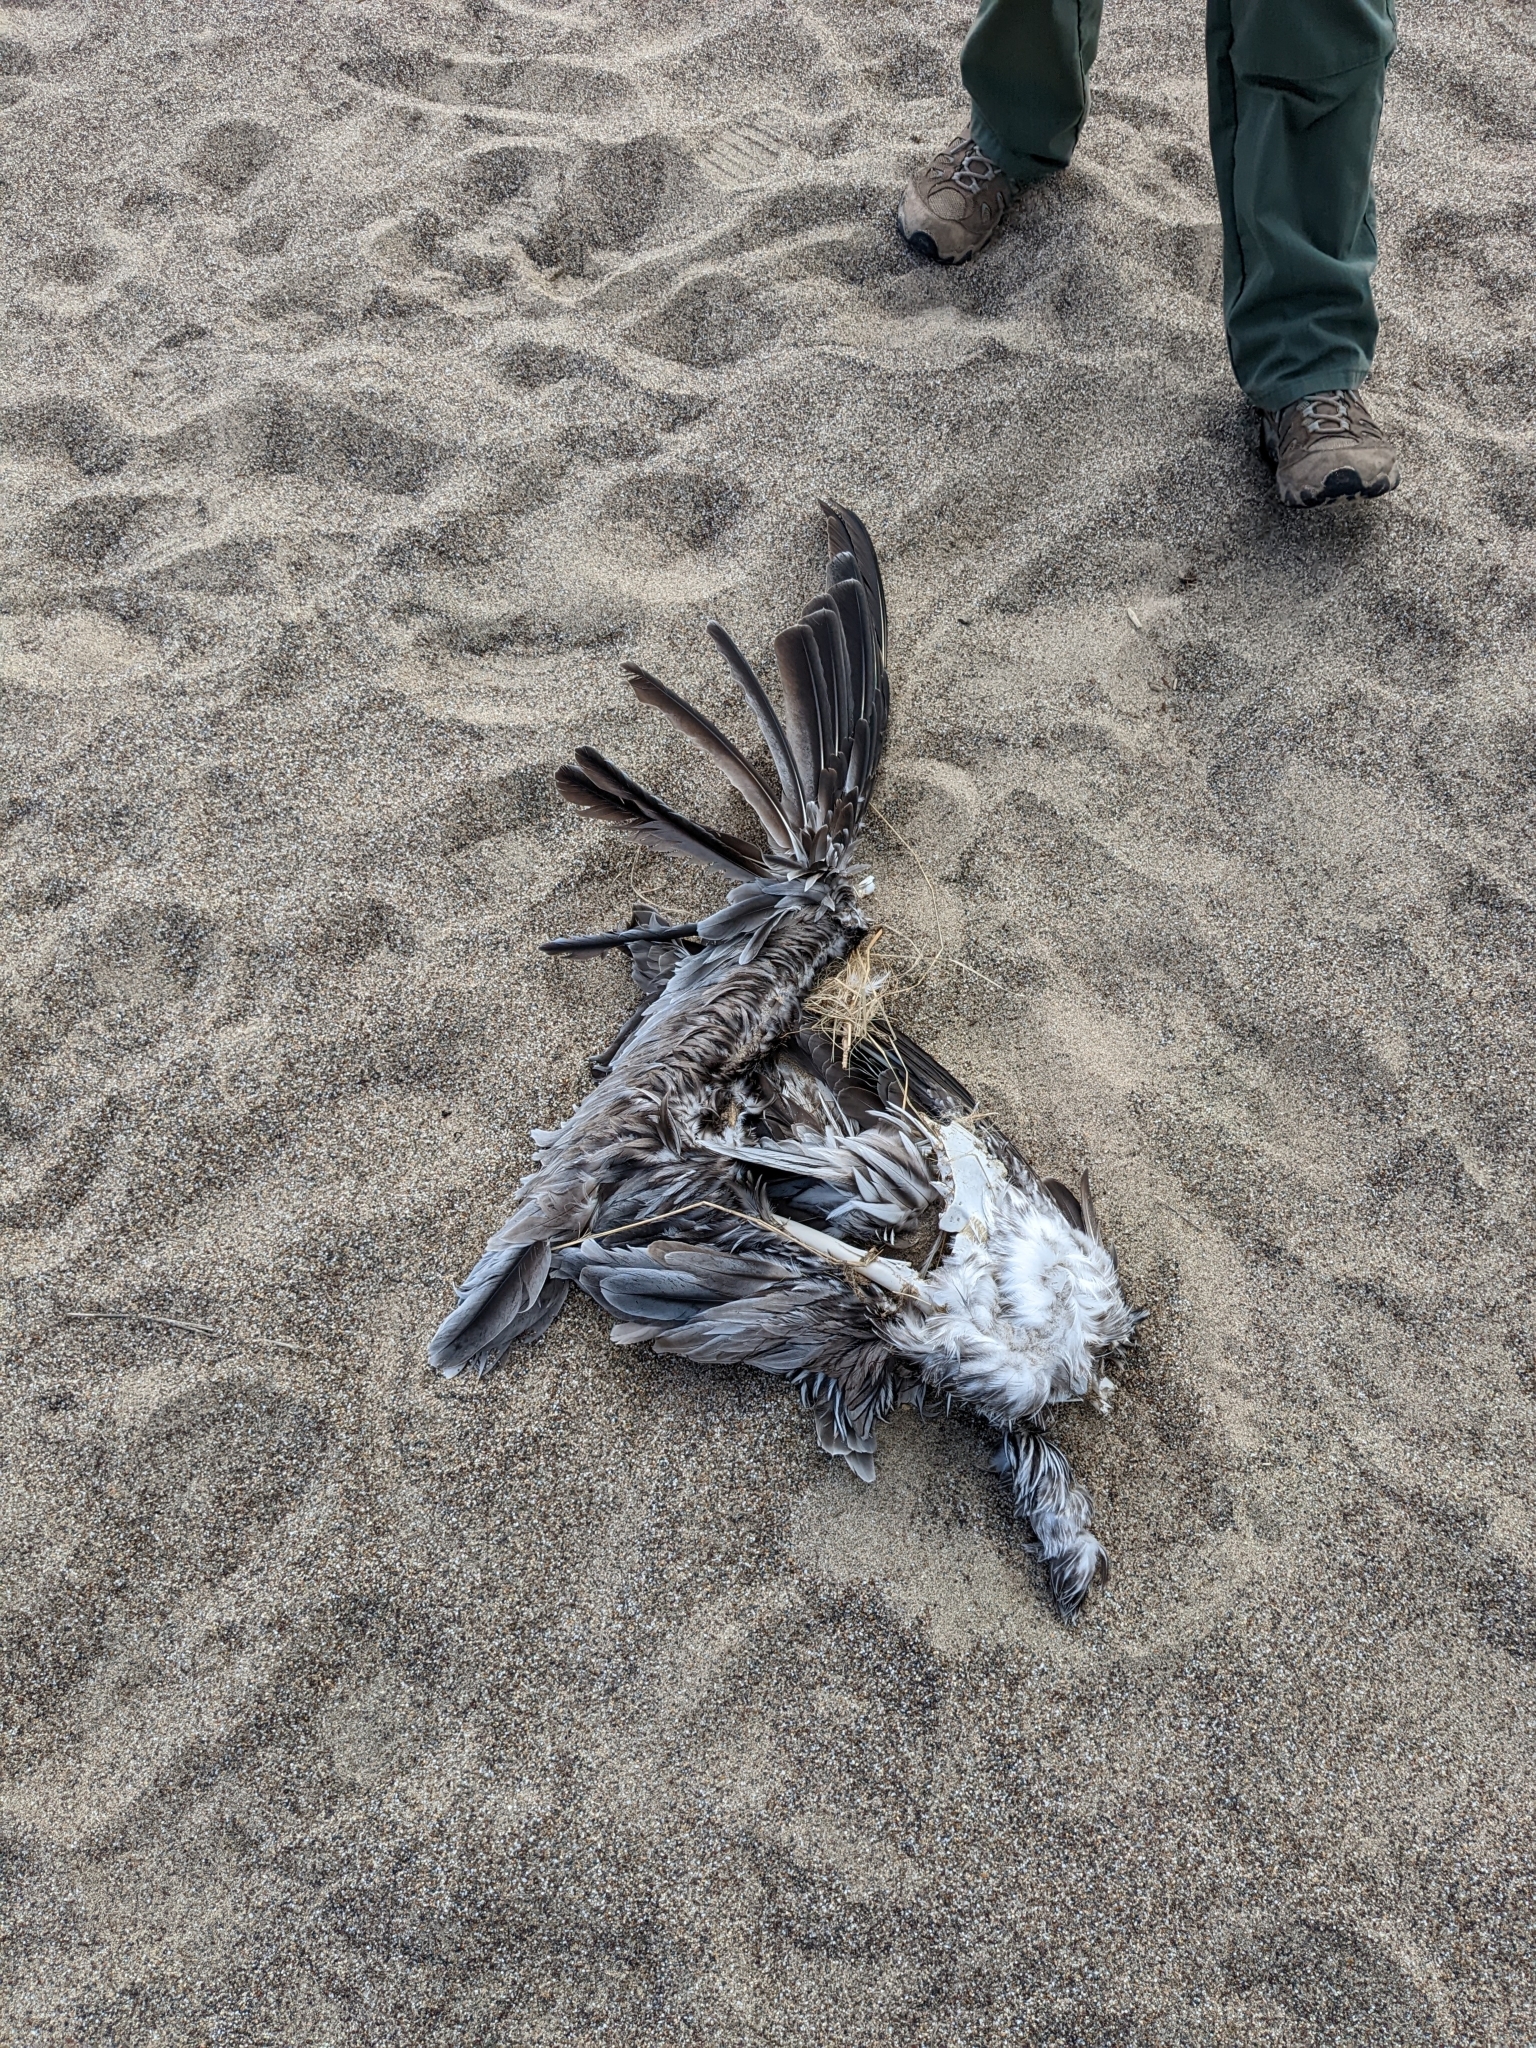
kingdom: Animalia
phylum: Chordata
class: Aves
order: Pelecaniformes
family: Pelecanidae
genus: Pelecanus
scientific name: Pelecanus occidentalis
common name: Brown pelican
